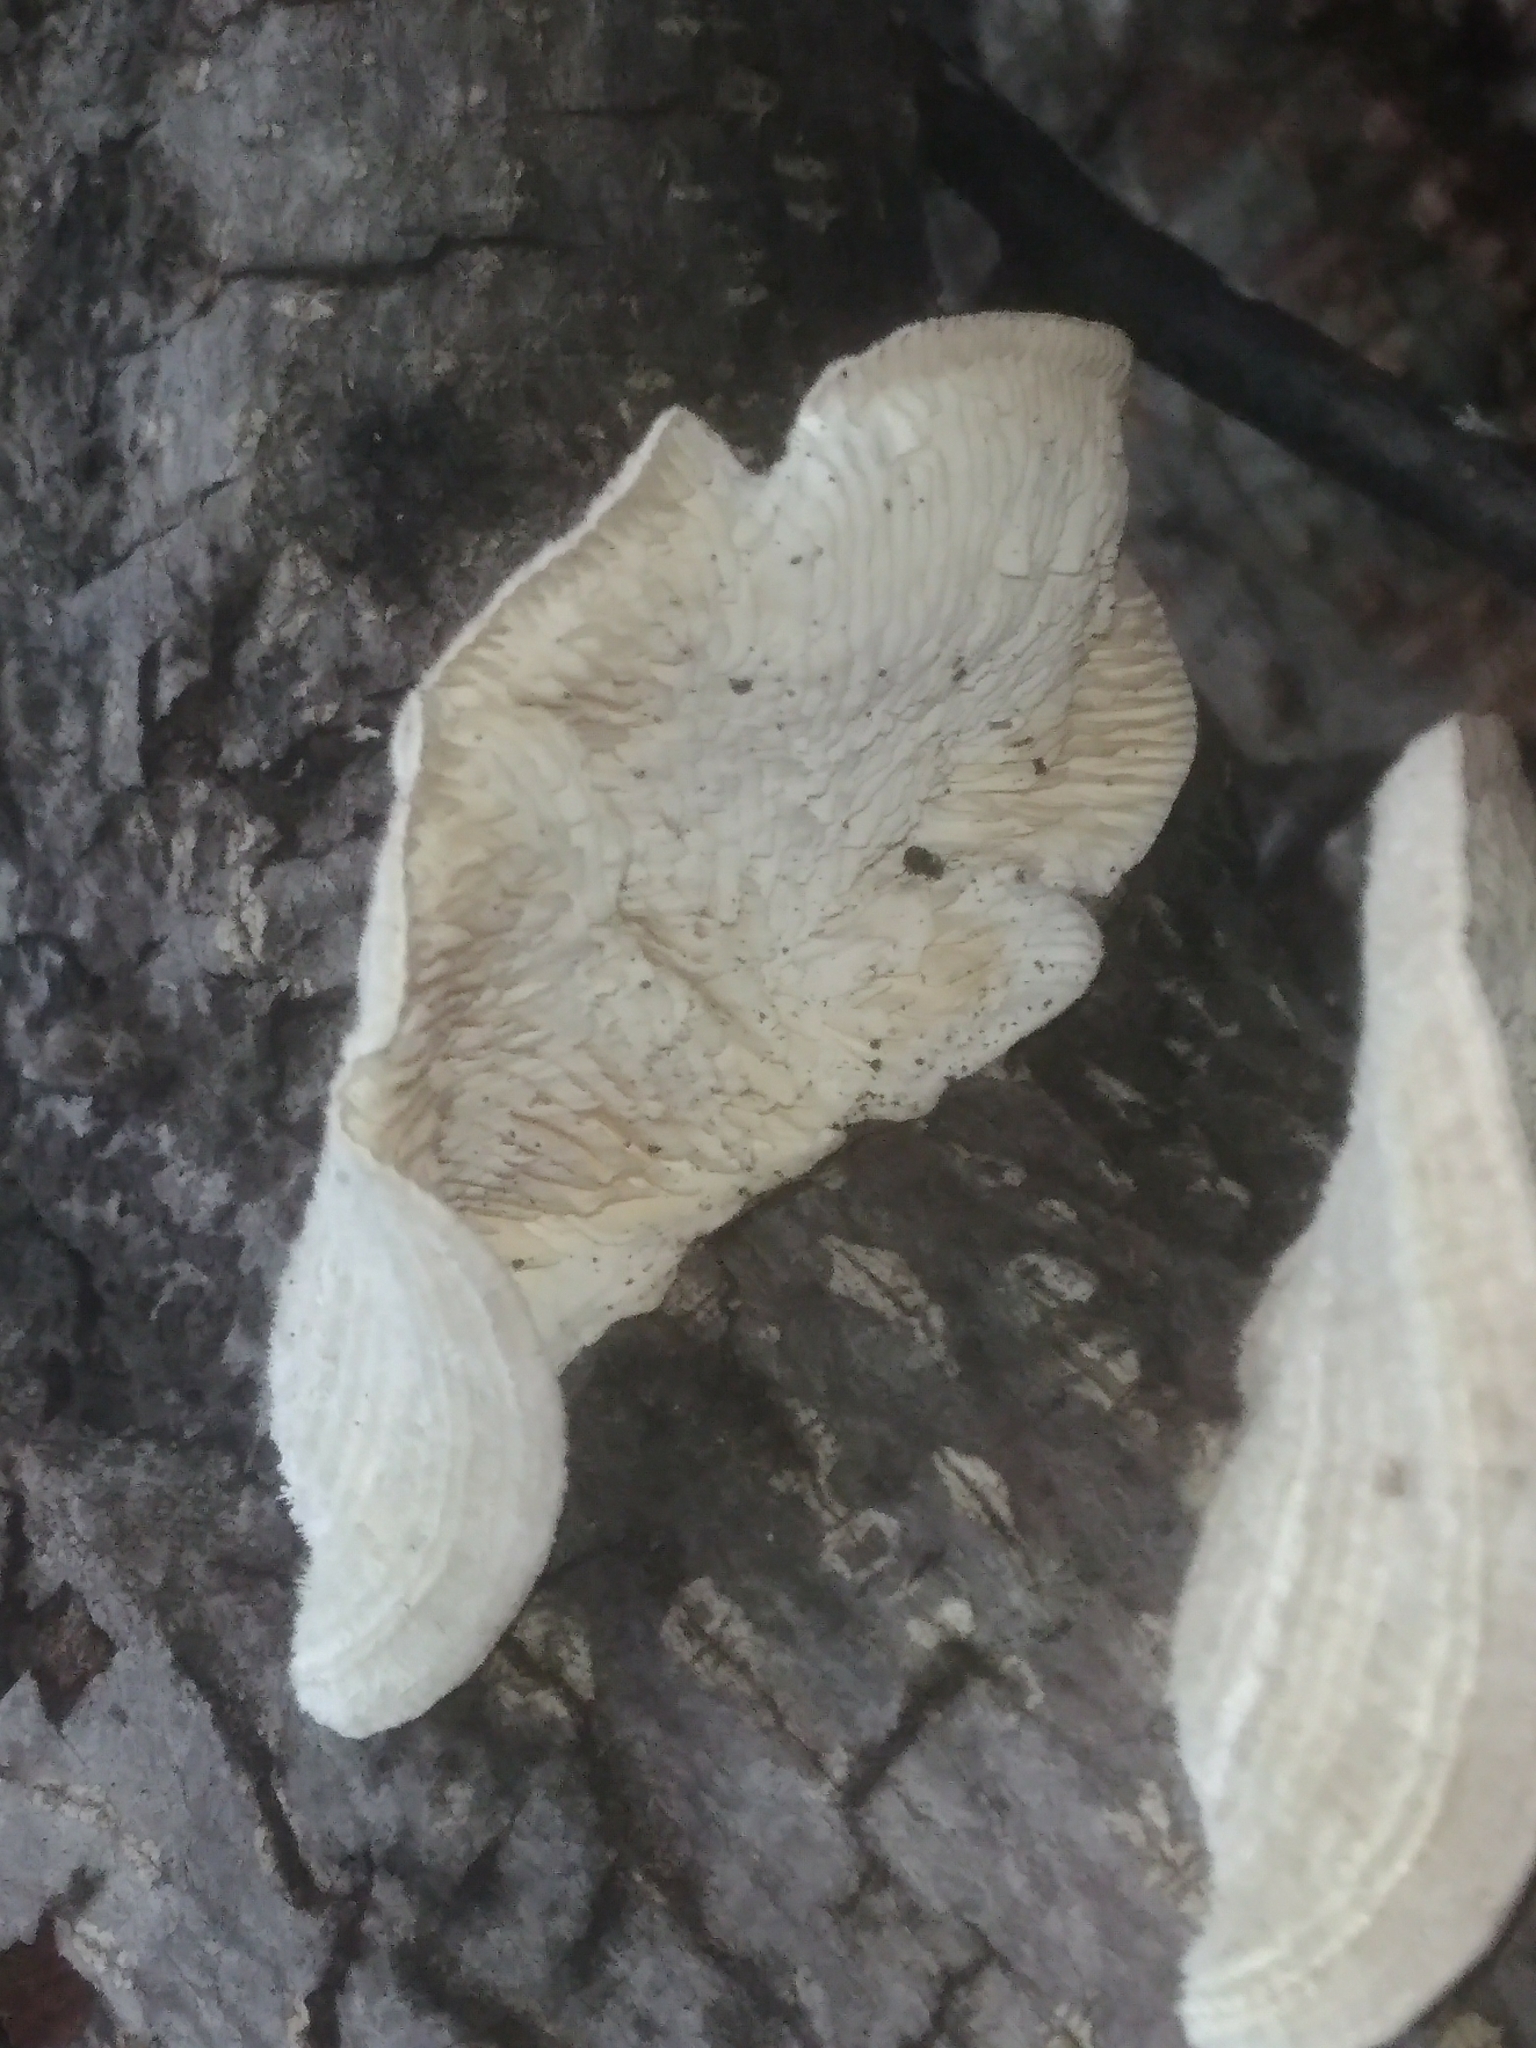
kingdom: Fungi
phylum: Basidiomycota
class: Agaricomycetes
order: Polyporales
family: Polyporaceae
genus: Lenzites
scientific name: Lenzites betulinus
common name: Birch mazegill
